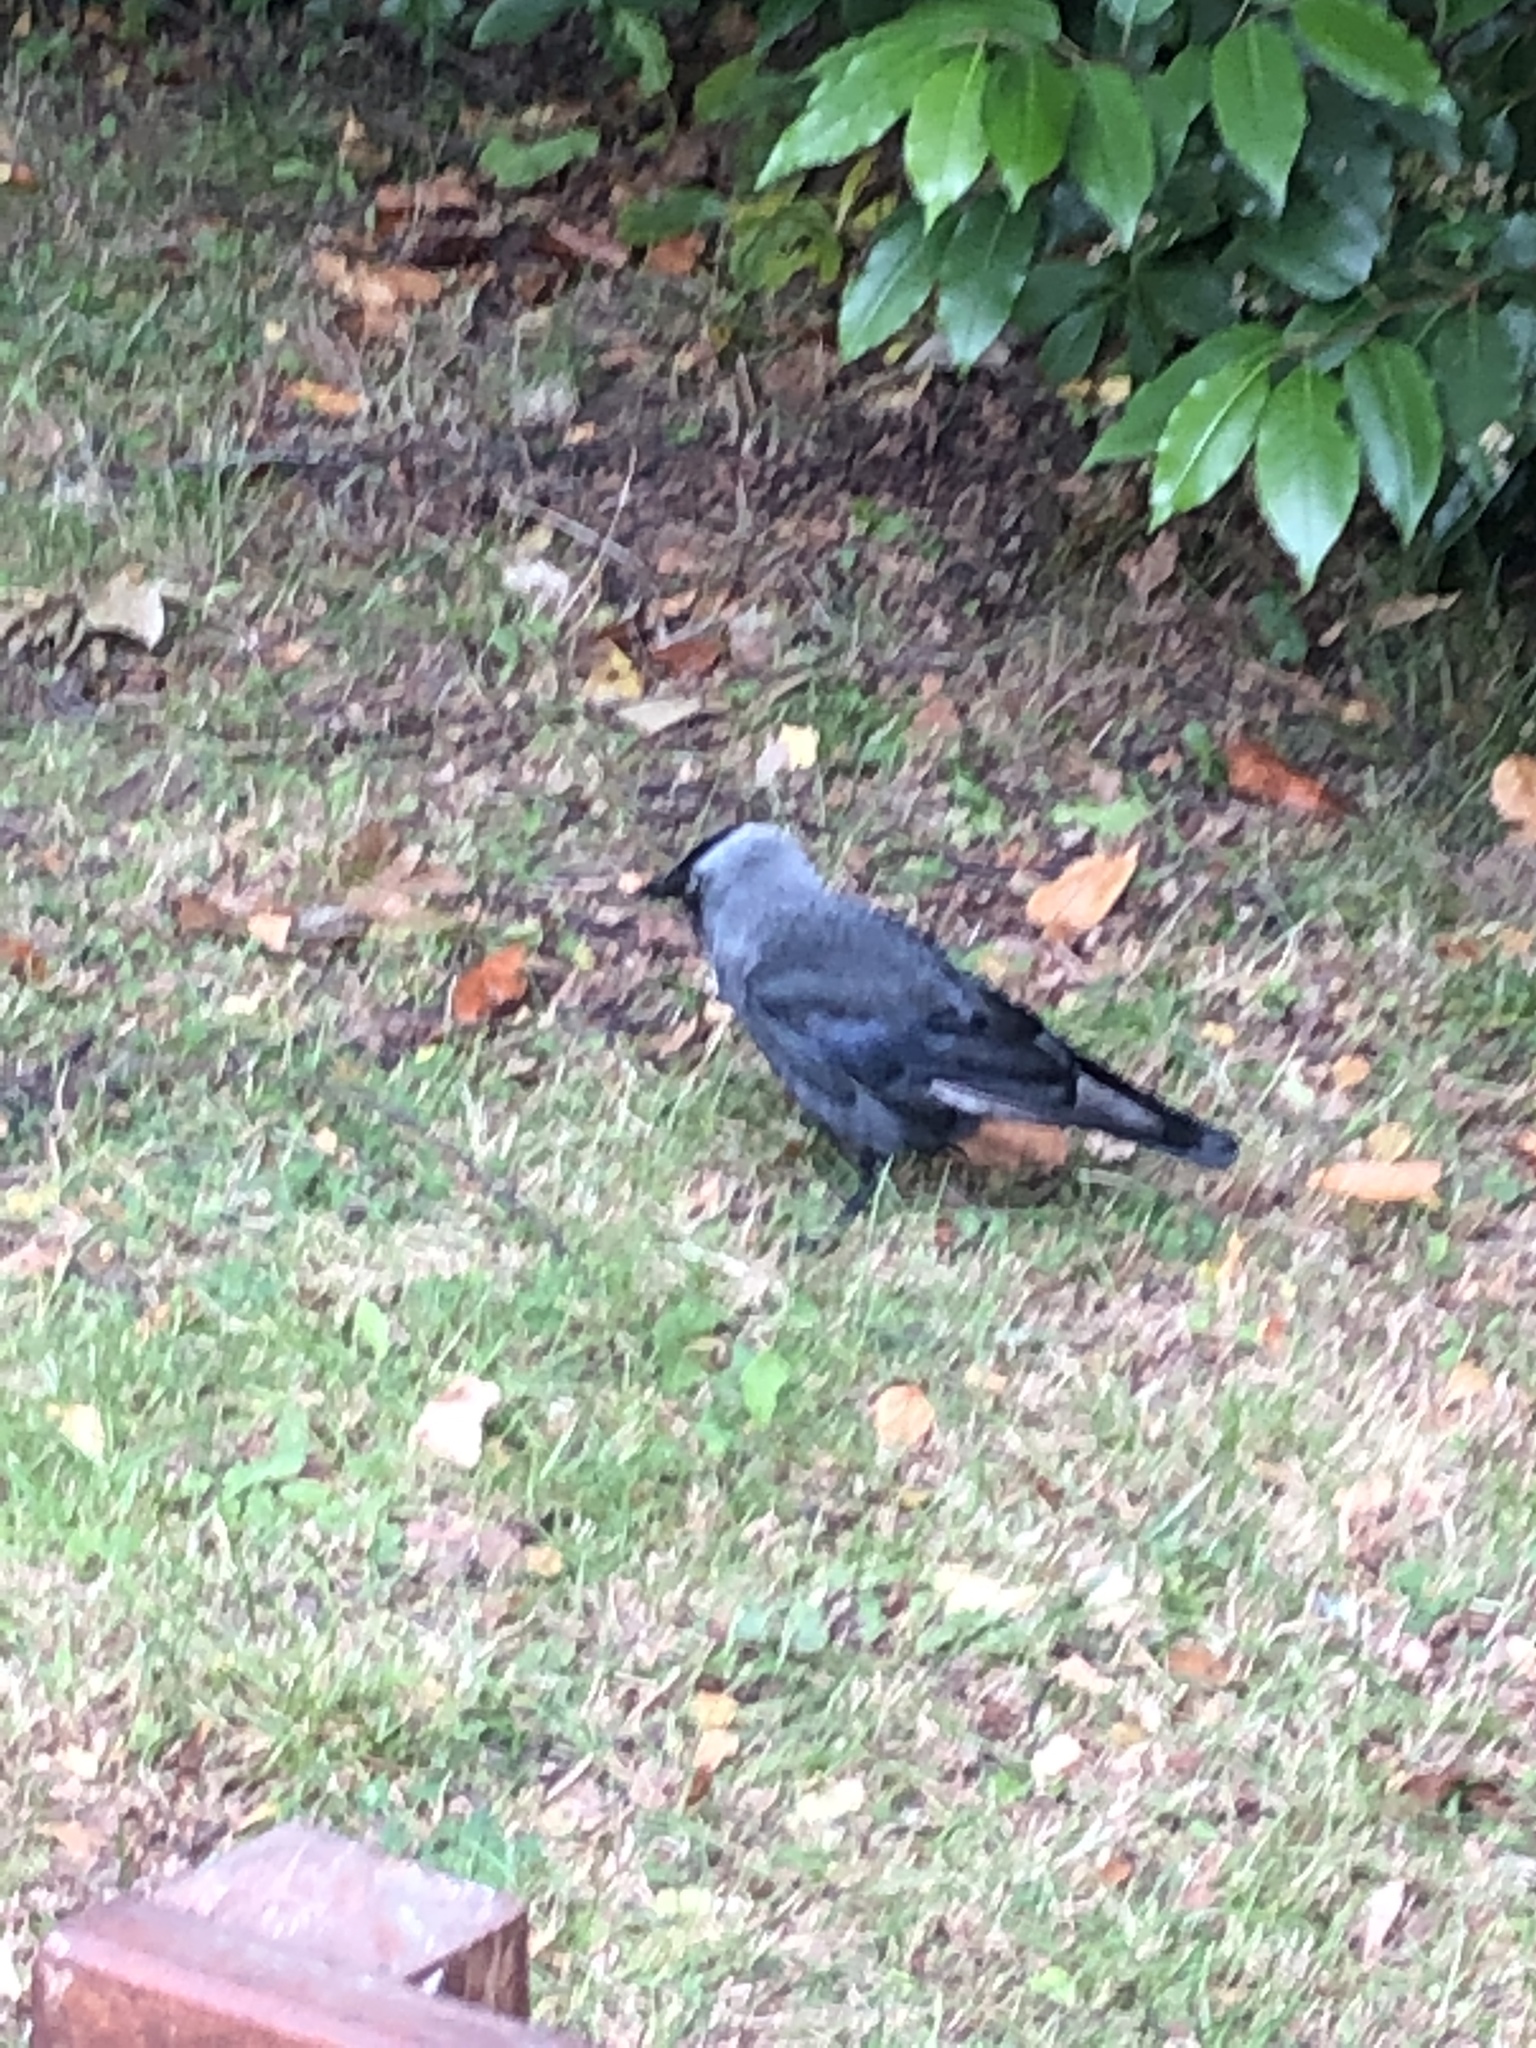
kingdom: Animalia
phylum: Chordata
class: Aves
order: Passeriformes
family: Corvidae
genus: Coloeus
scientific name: Coloeus monedula
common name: Western jackdaw
